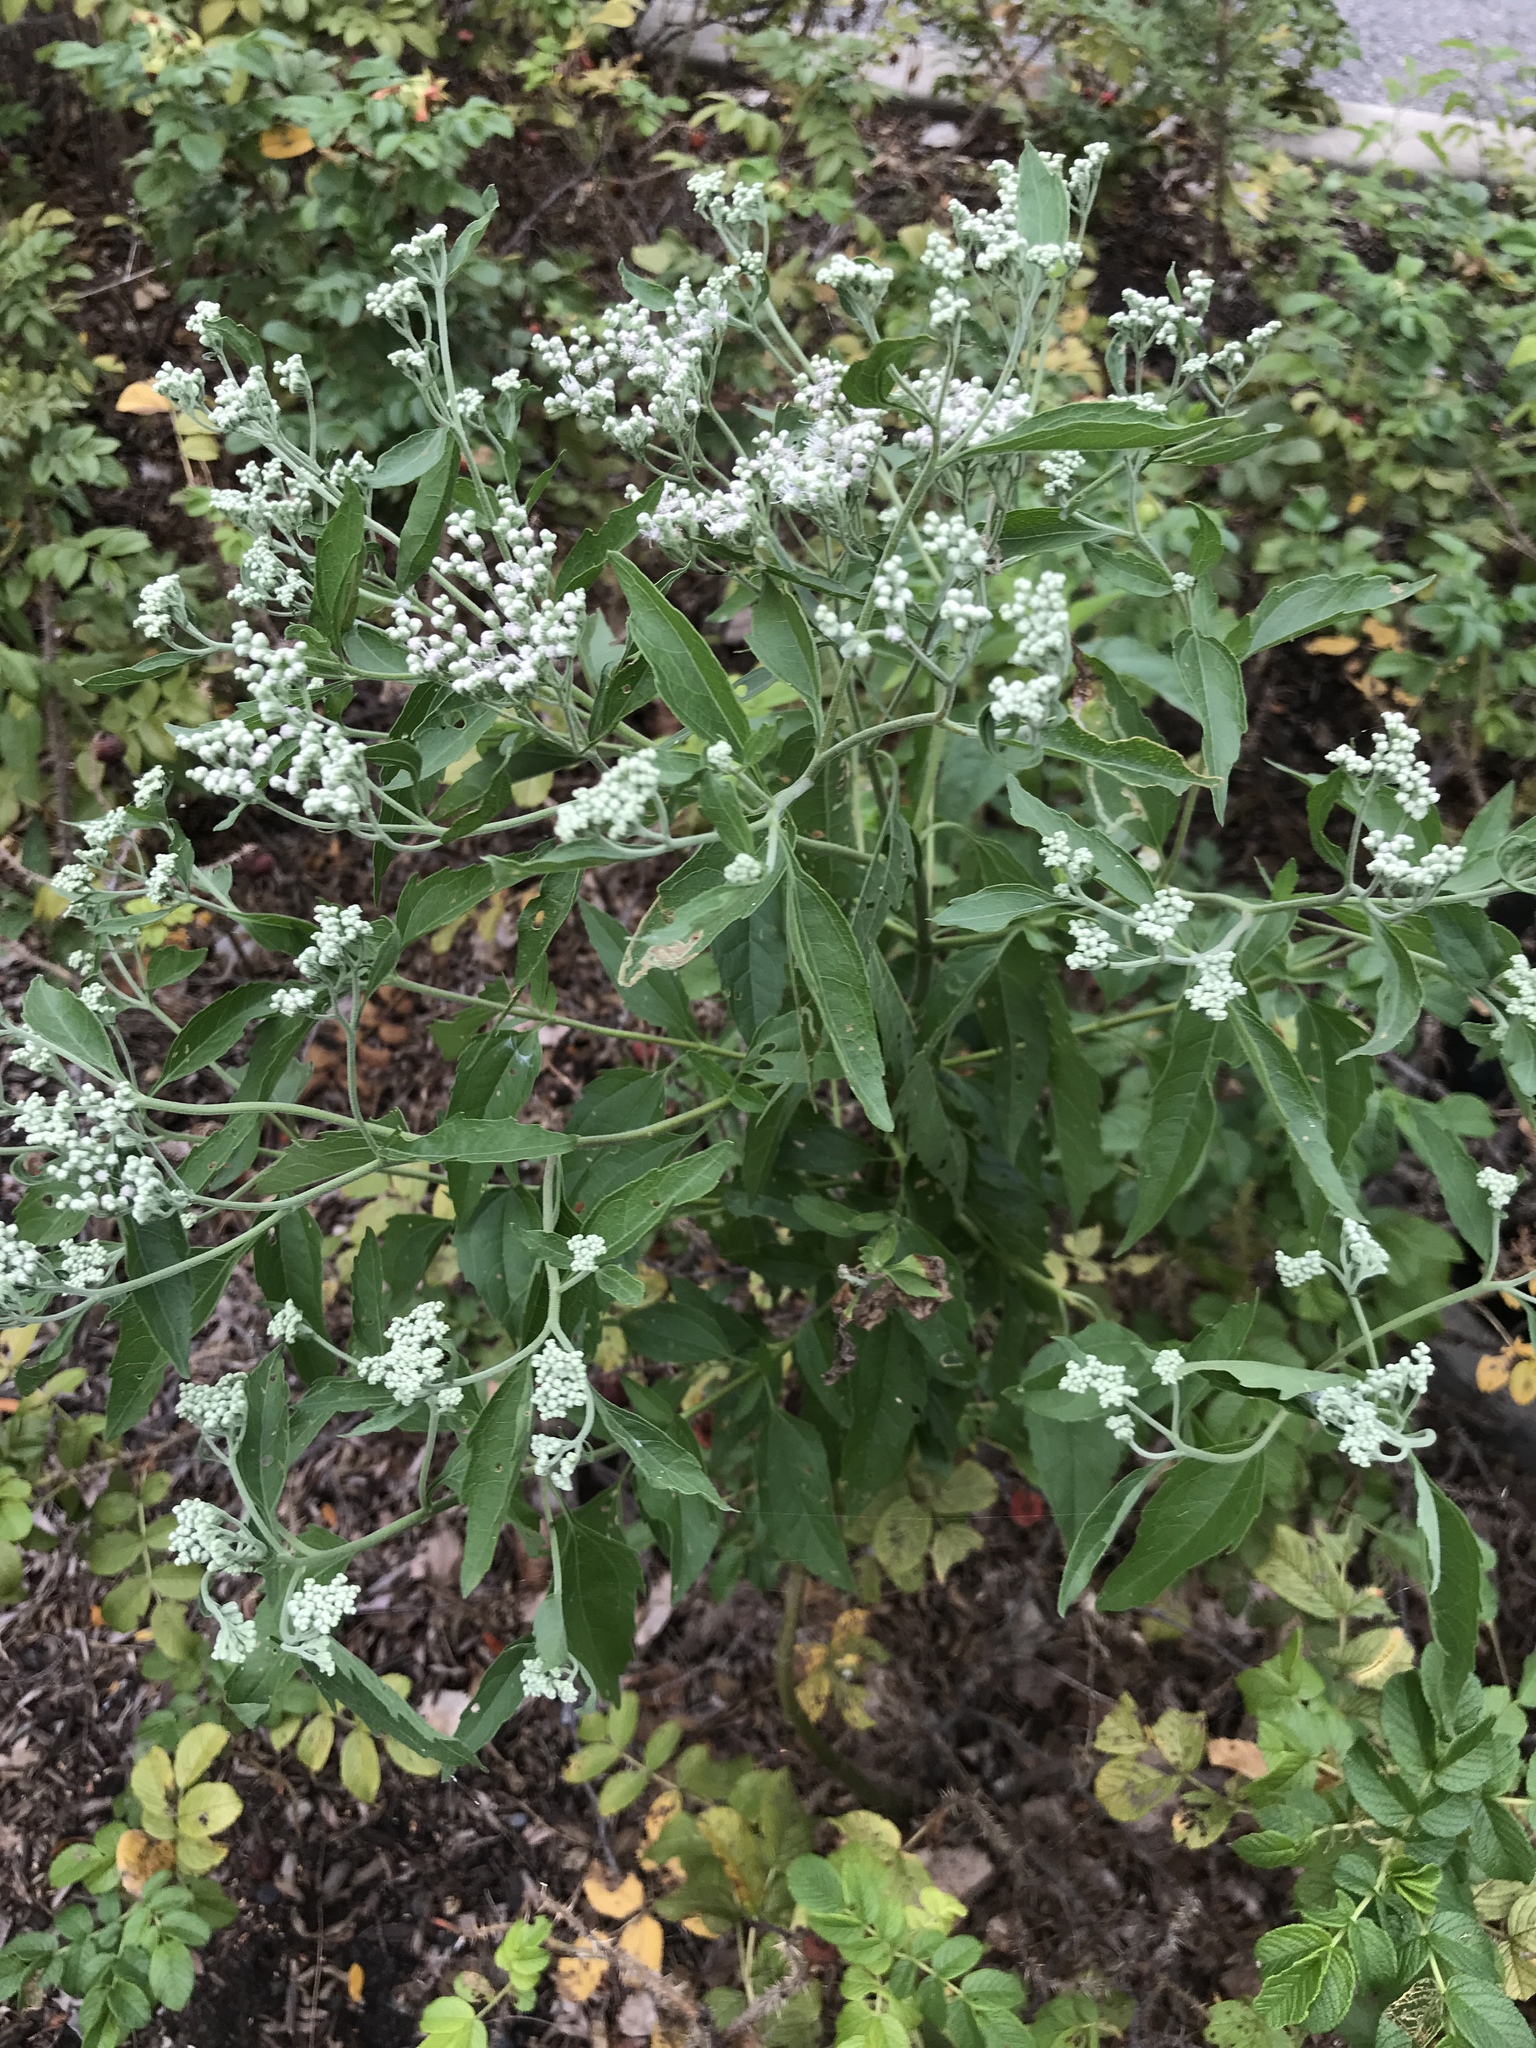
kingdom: Plantae
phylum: Tracheophyta
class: Magnoliopsida
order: Asterales
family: Asteraceae
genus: Eupatorium
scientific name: Eupatorium serotinum
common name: Late boneset
